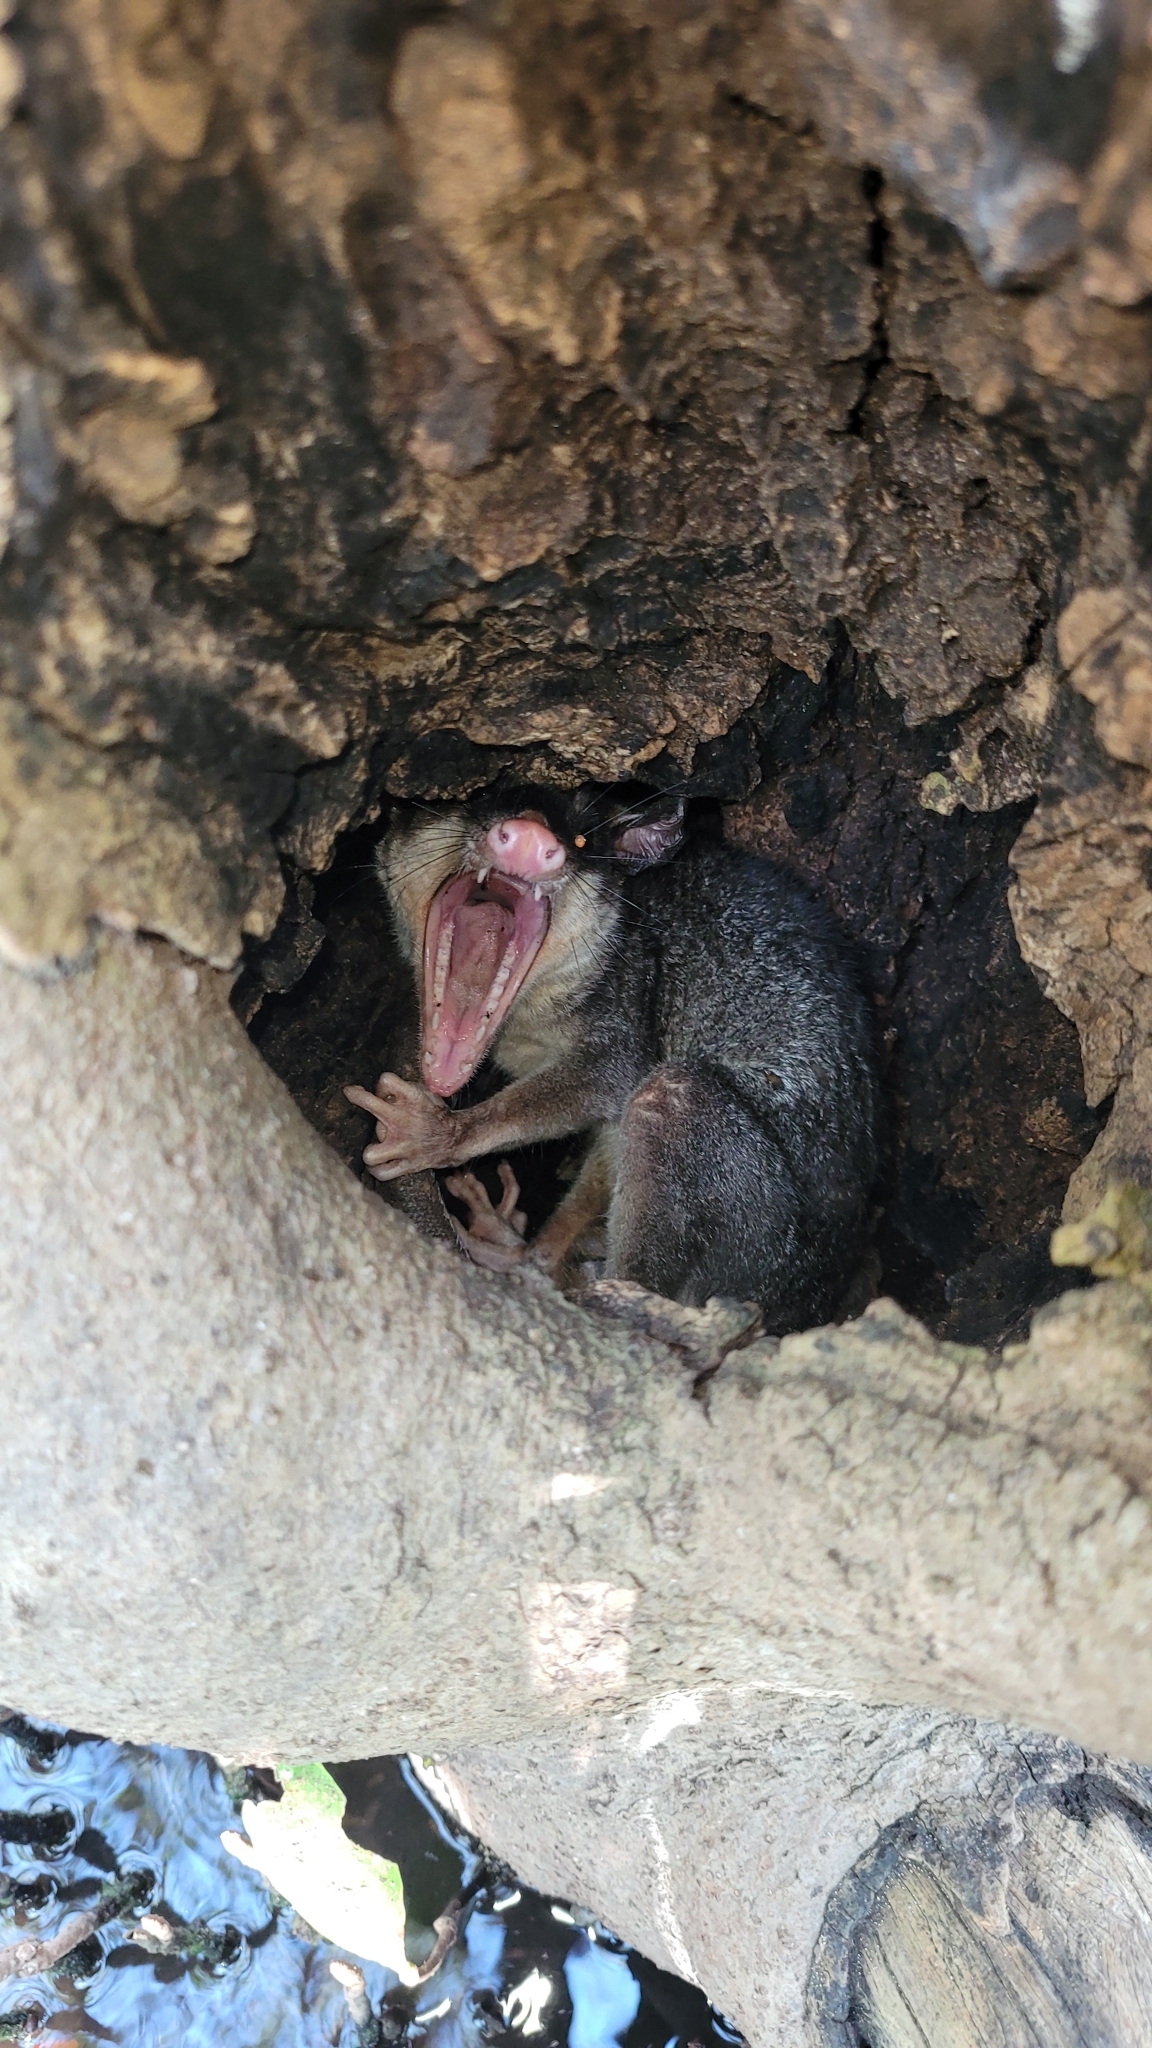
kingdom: Animalia
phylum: Chordata
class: Mammalia
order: Didelphimorphia
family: Didelphidae
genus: Philander
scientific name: Philander
